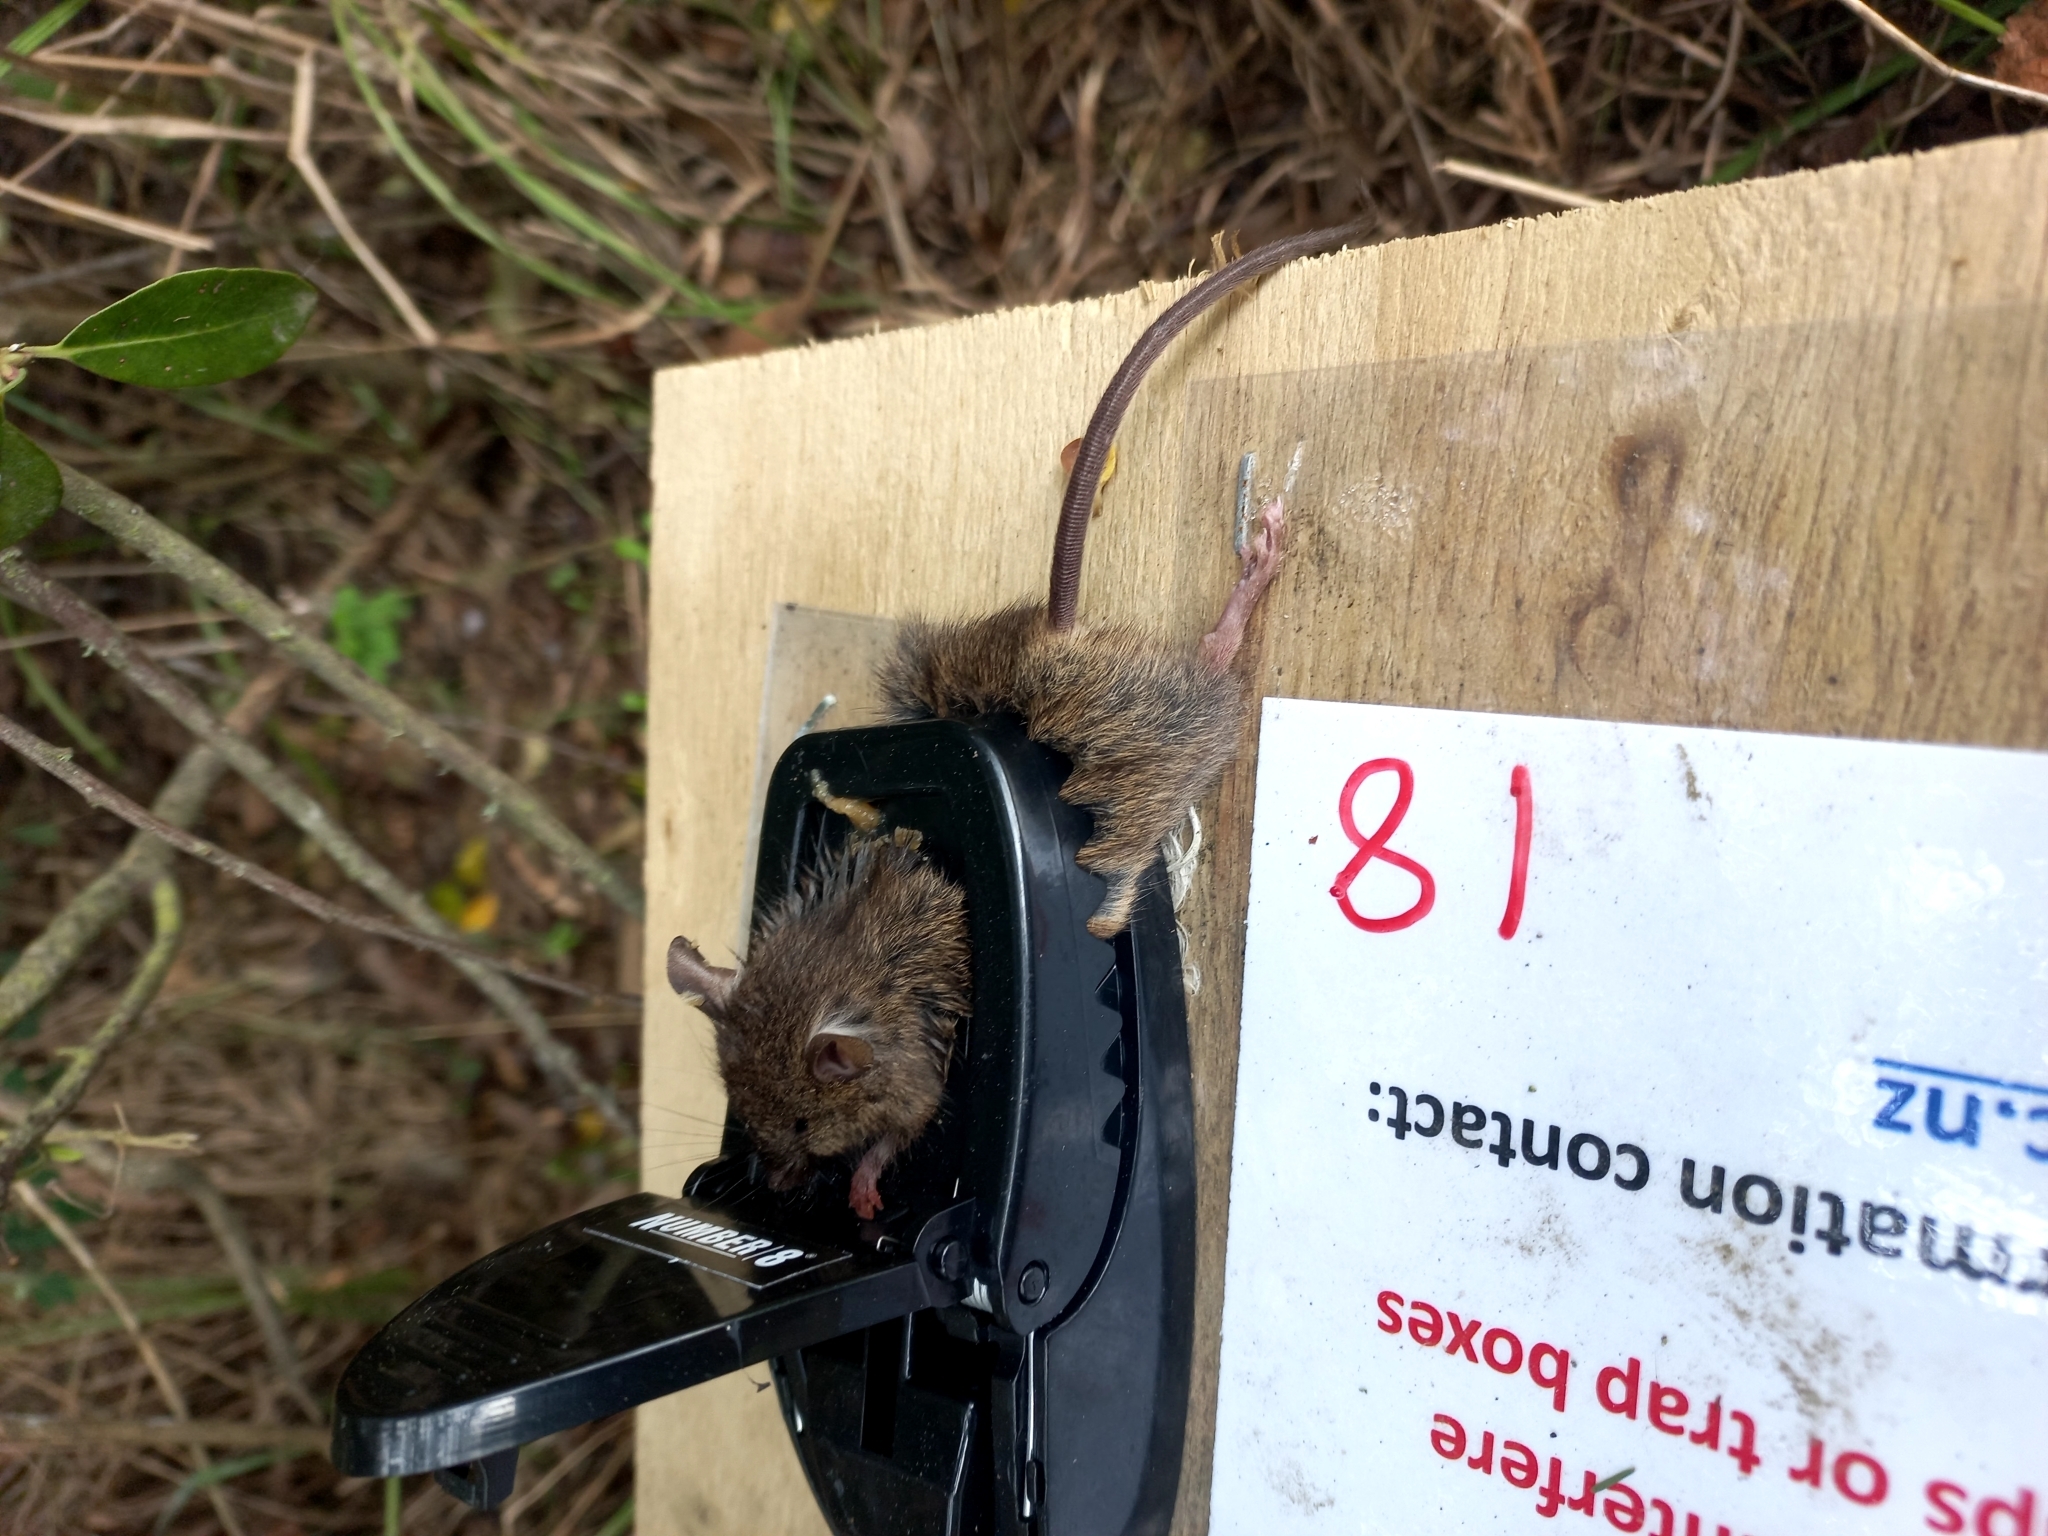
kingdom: Animalia
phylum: Chordata
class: Mammalia
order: Rodentia
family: Muridae
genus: Mus
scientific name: Mus musculus
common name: House mouse
